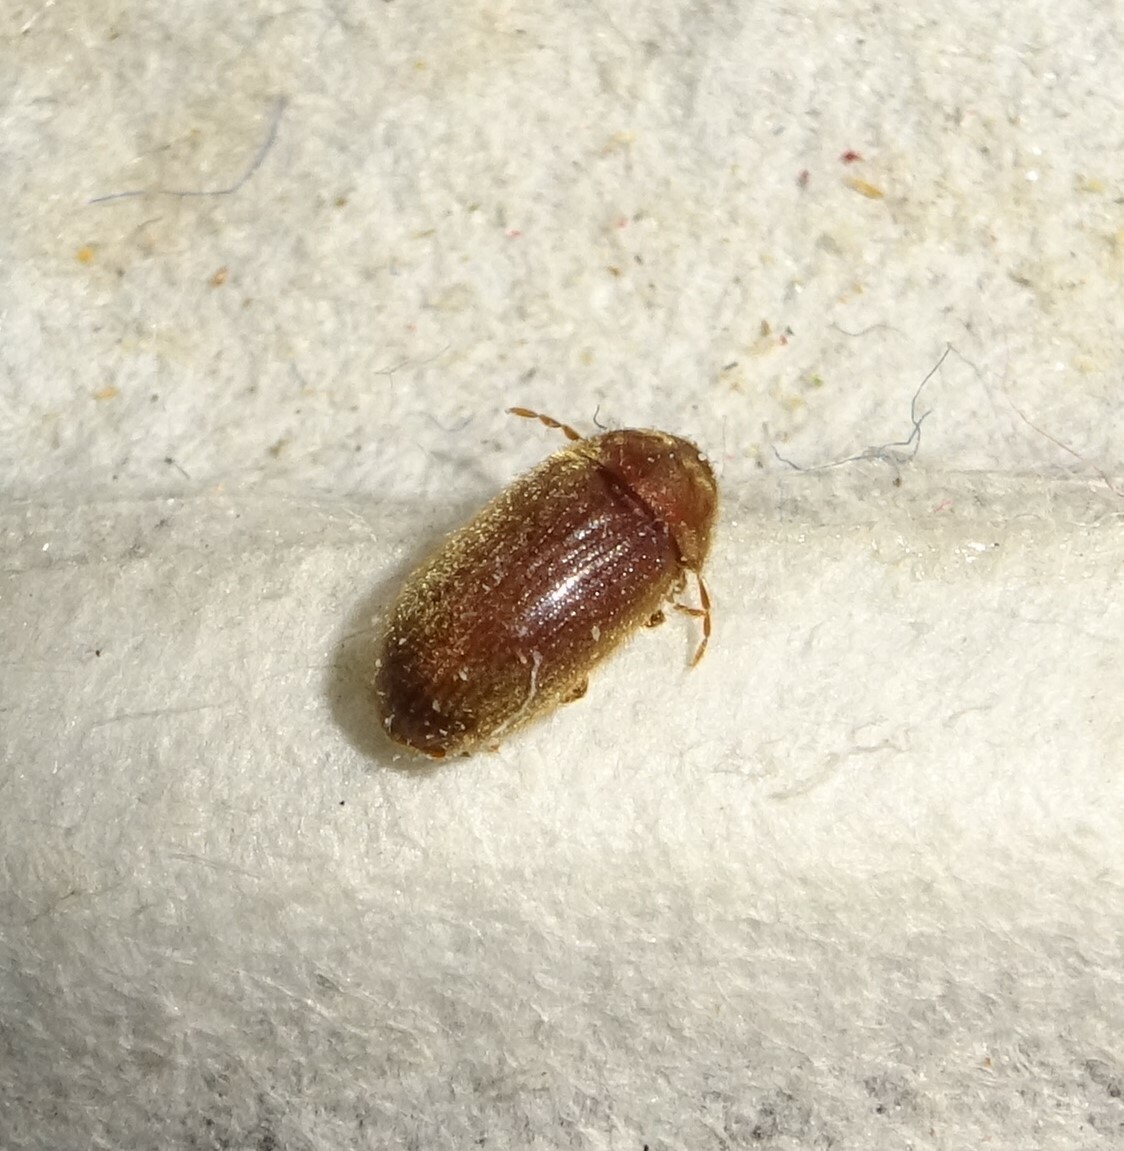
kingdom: Animalia
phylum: Arthropoda
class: Insecta
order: Coleoptera
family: Anobiidae
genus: Stegobium
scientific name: Stegobium paniceum
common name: Drugstore beetle
